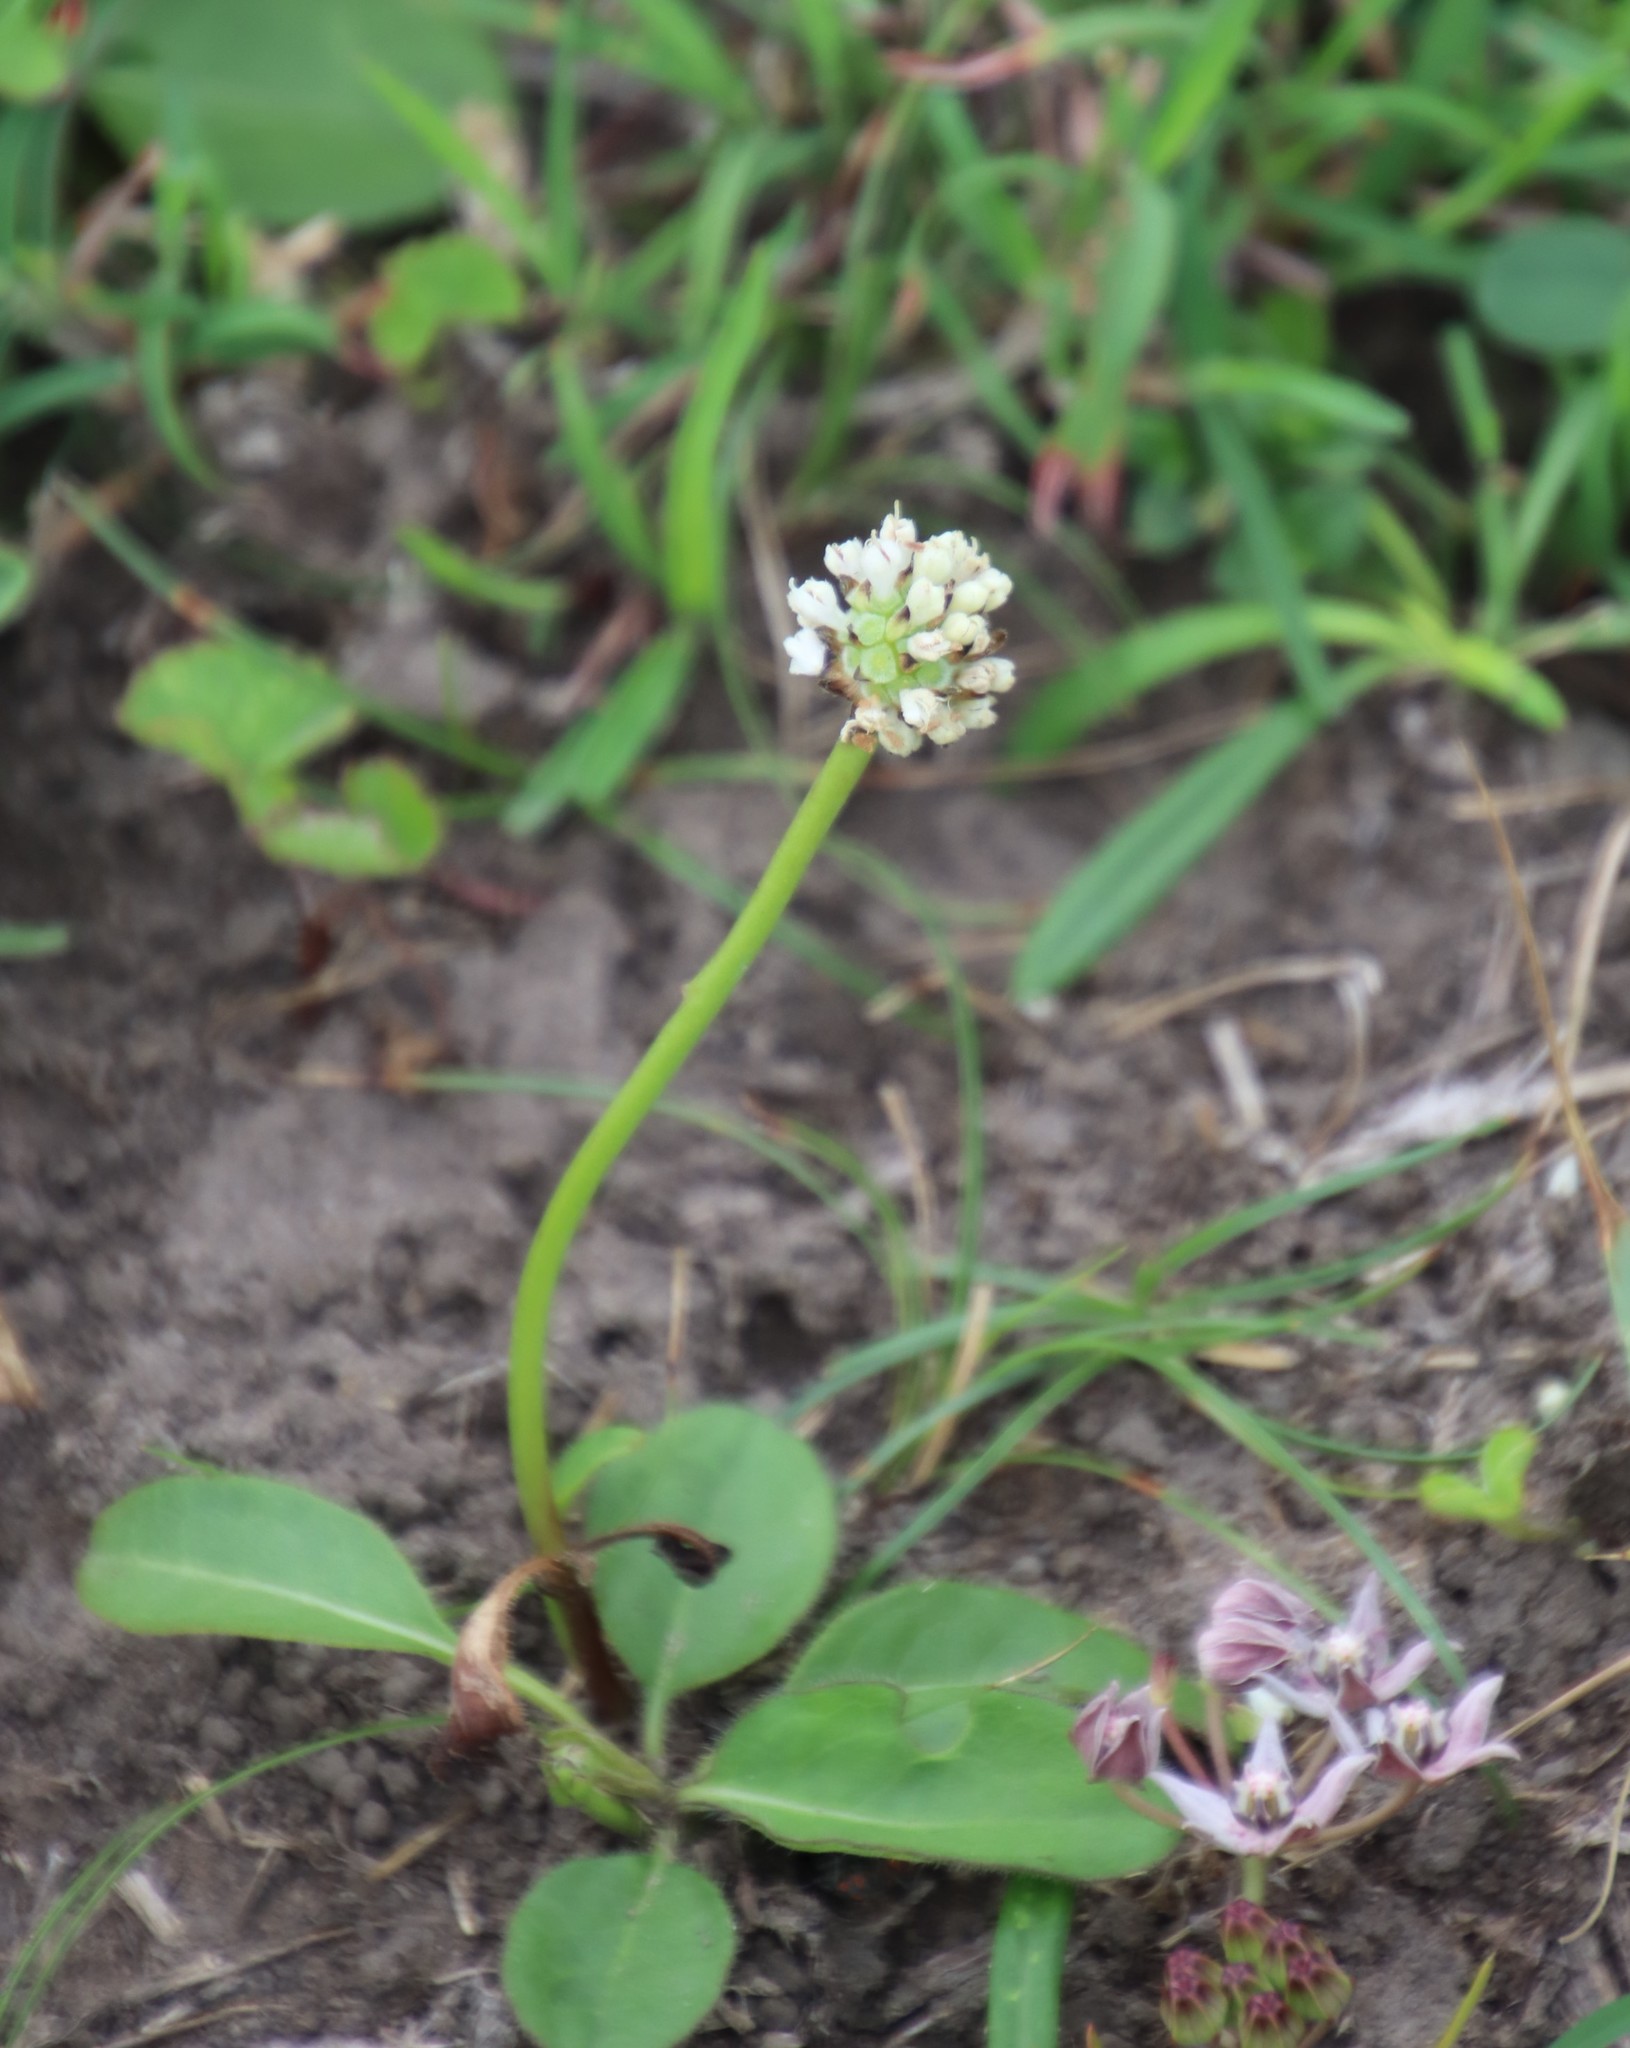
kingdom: Plantae
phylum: Tracheophyta
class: Magnoliopsida
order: Gentianales
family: Apocynaceae
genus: Xysmalobium
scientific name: Xysmalobium involucratum
